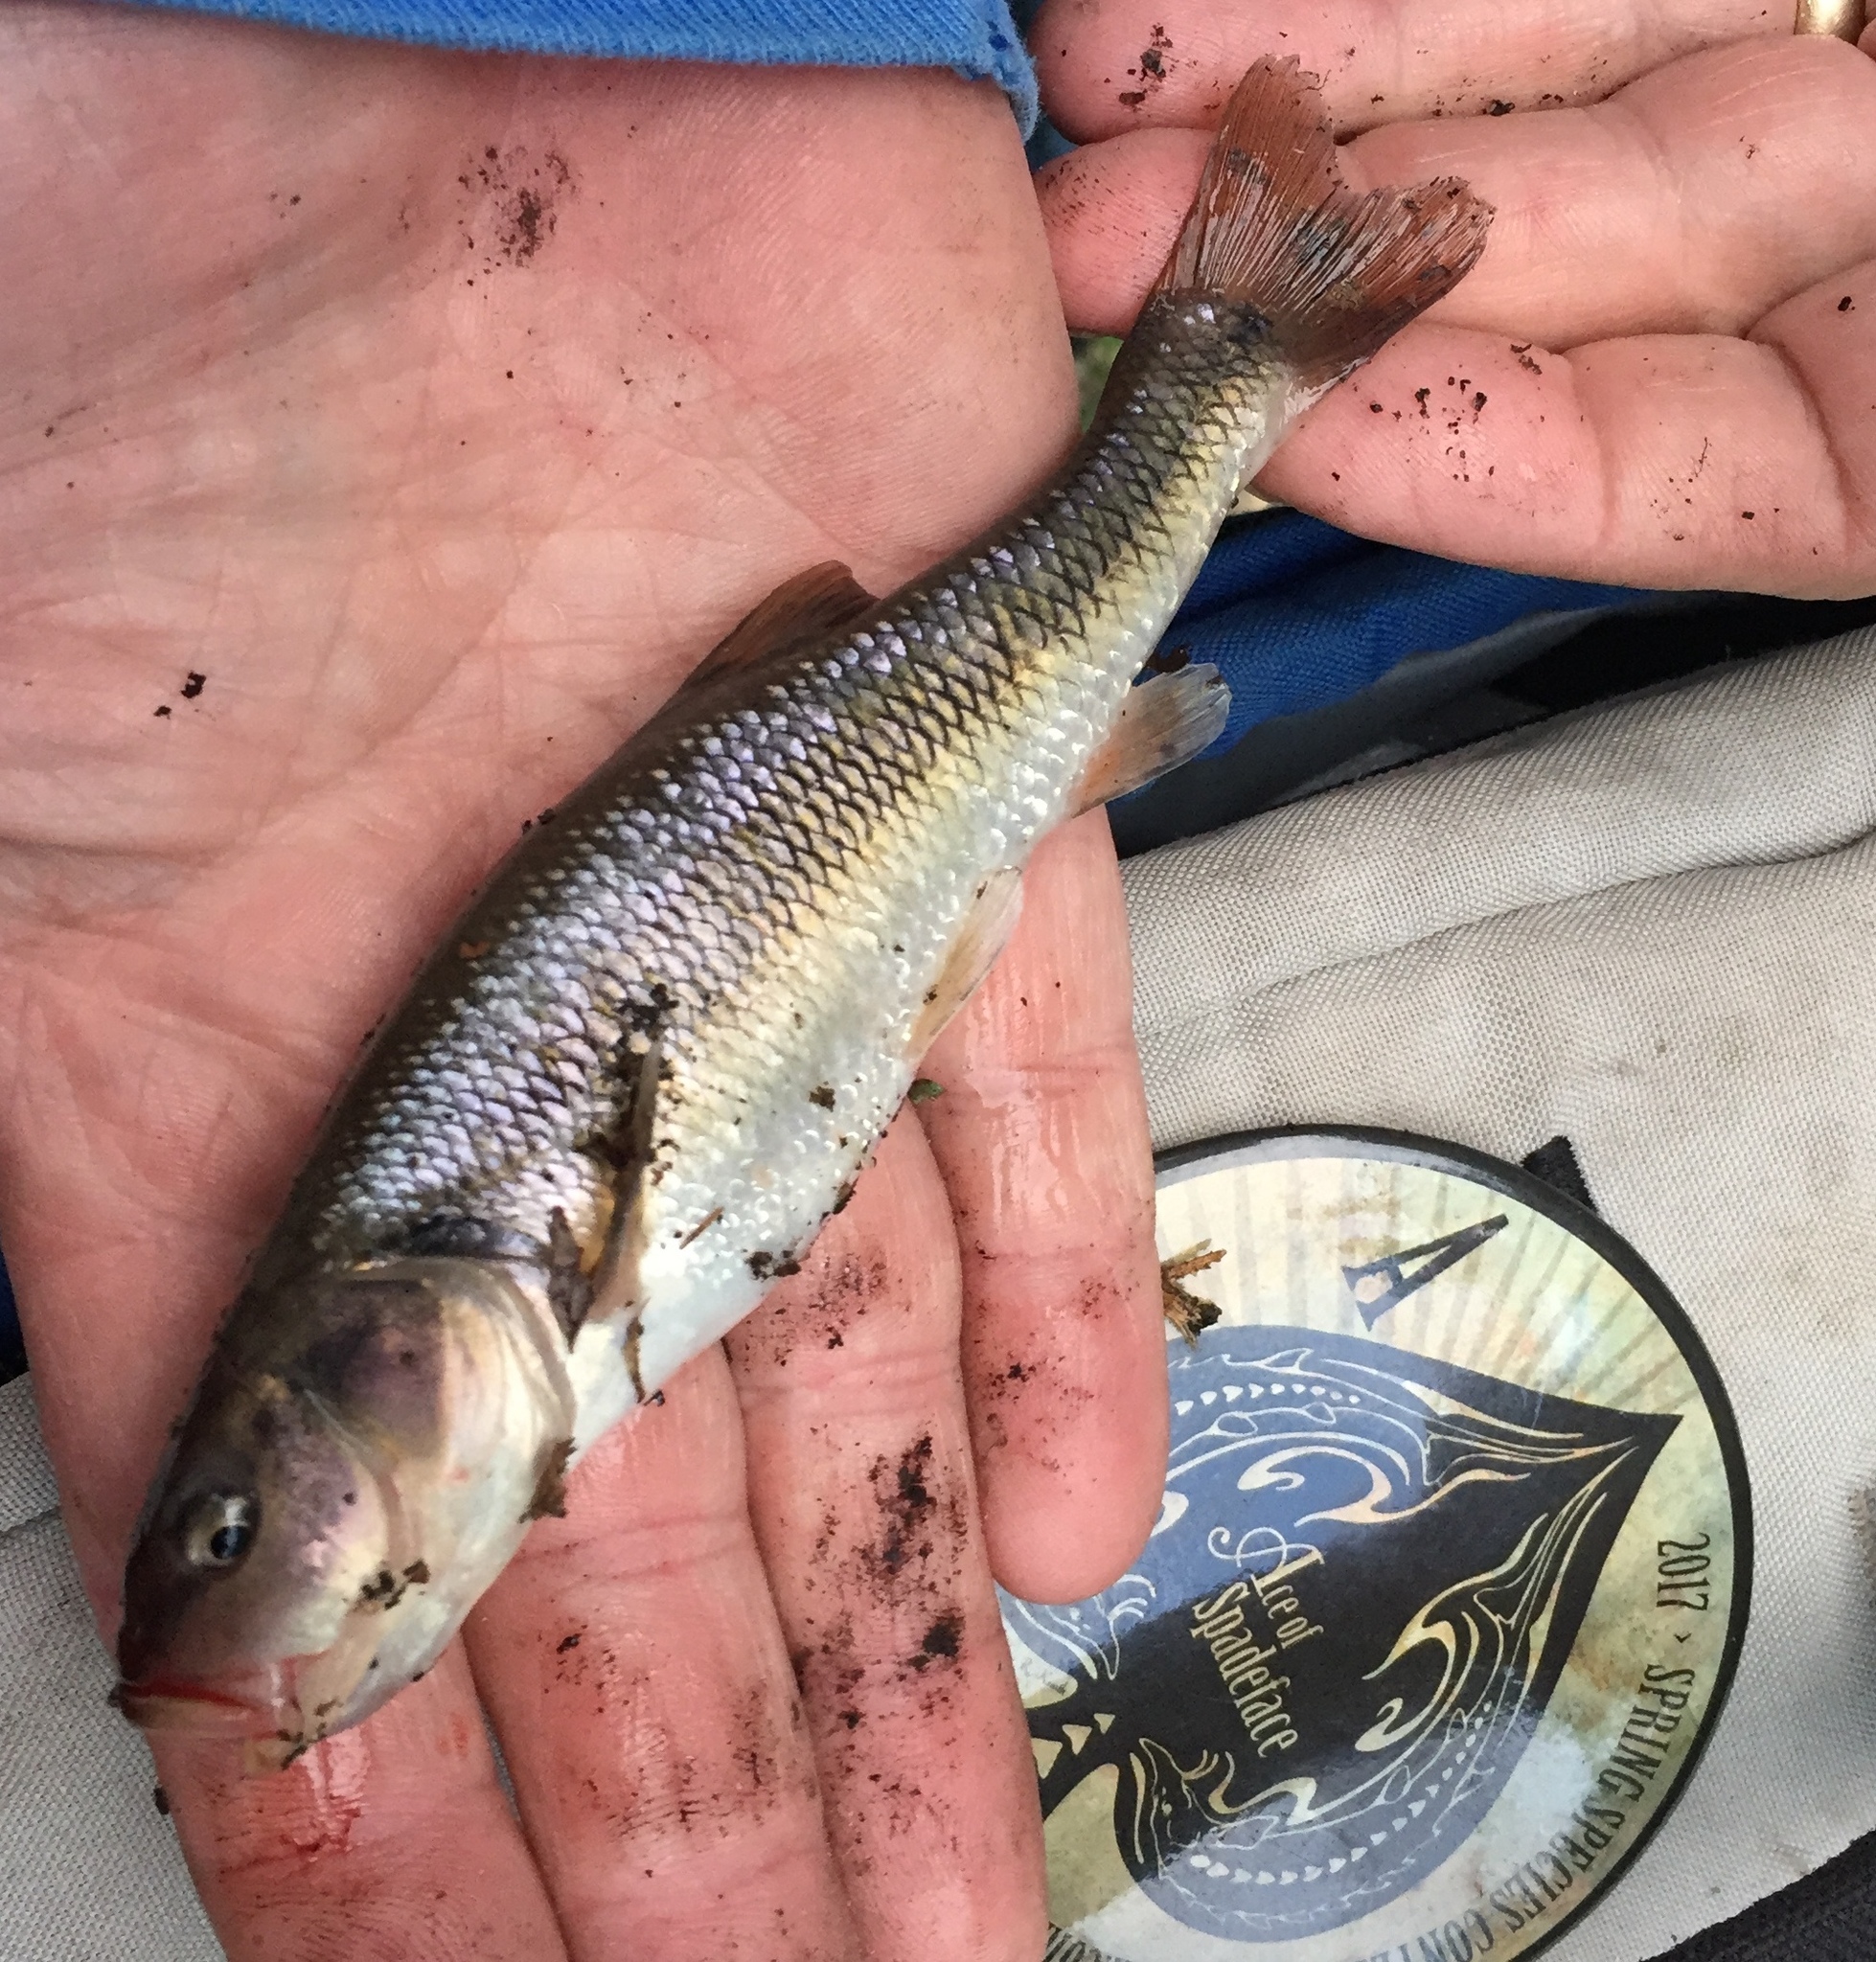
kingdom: Animalia
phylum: Chordata
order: Cypriniformes
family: Cyprinidae
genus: Semotilus
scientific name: Semotilus atromaculatus
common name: Creek chub
